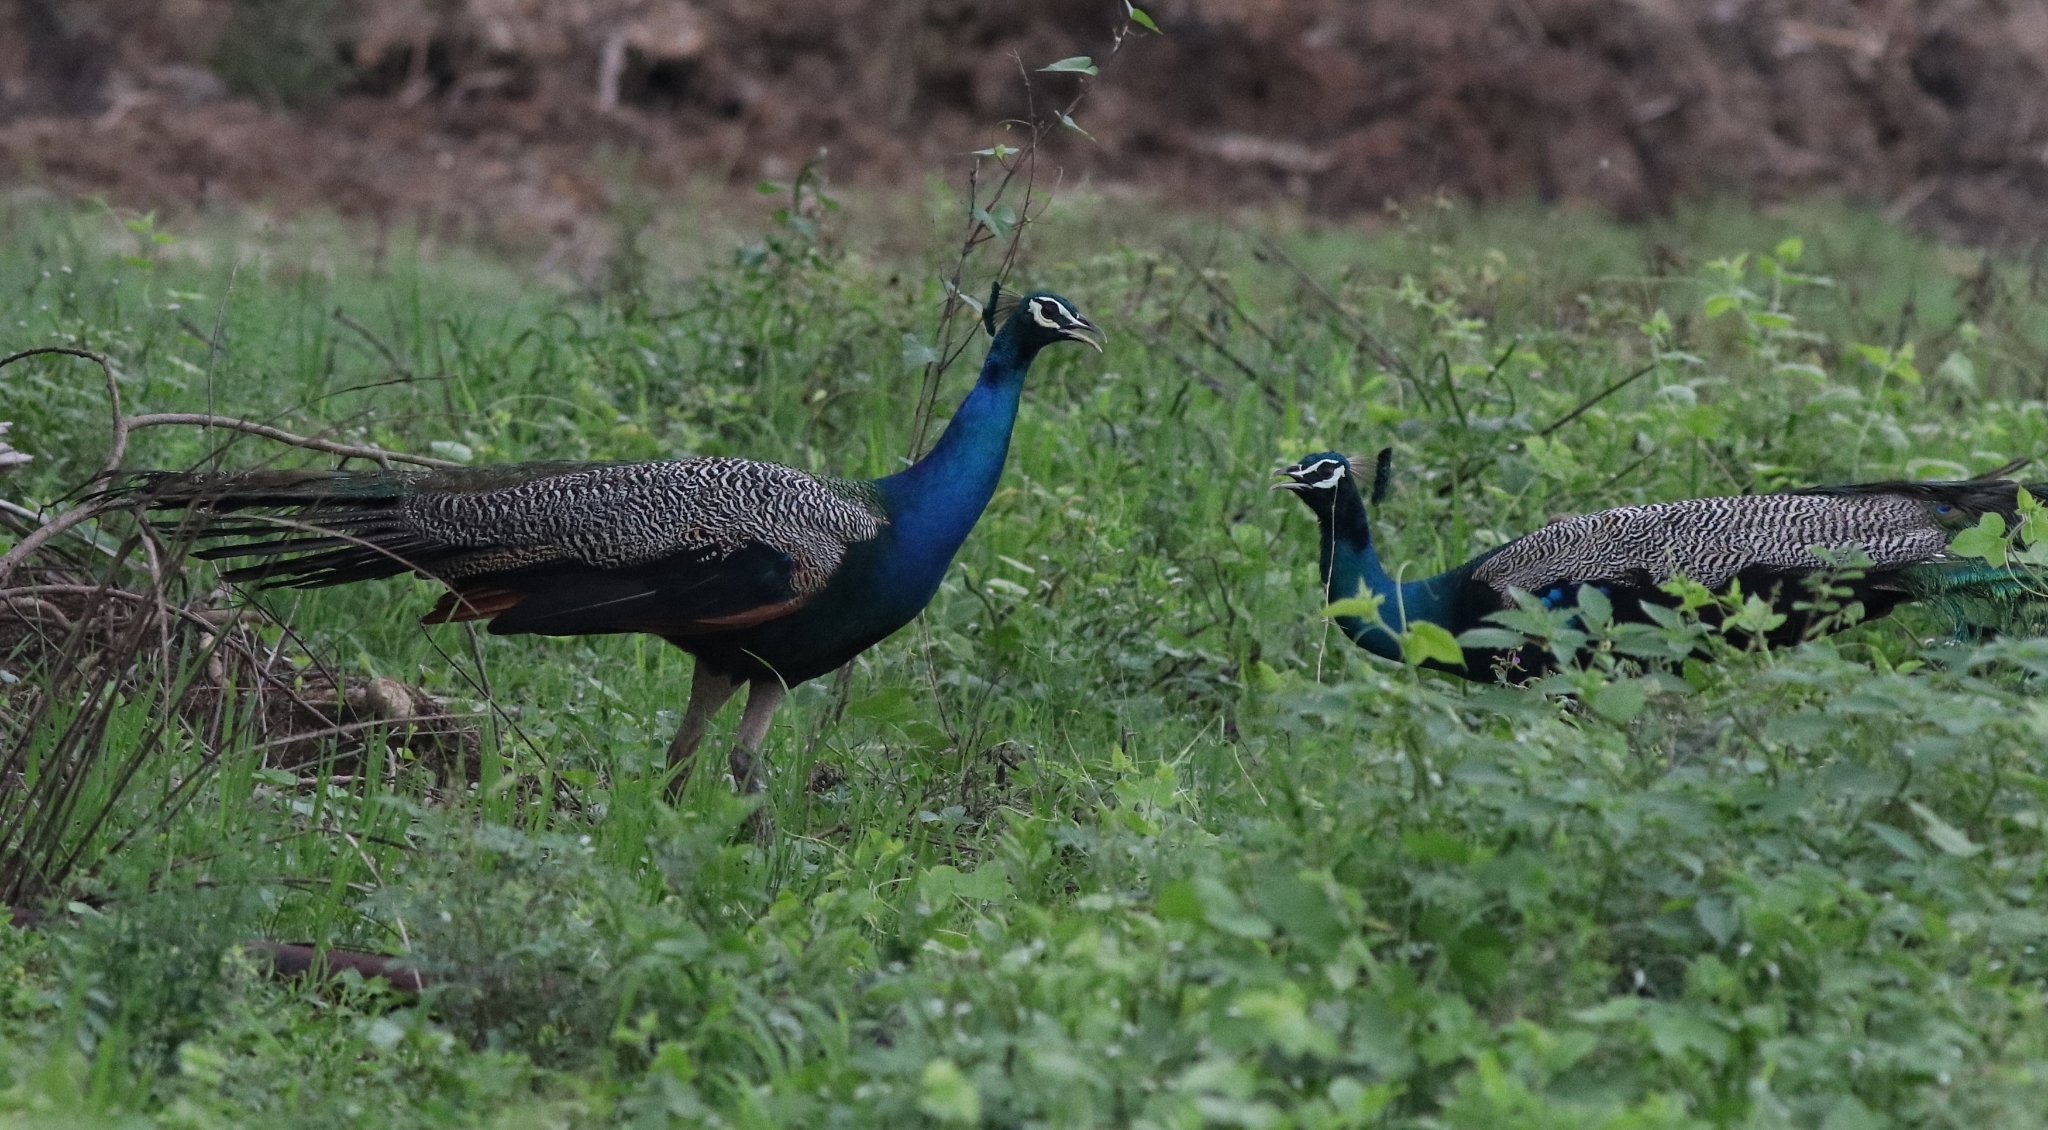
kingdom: Animalia
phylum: Chordata
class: Aves
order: Galliformes
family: Phasianidae
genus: Pavo
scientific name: Pavo cristatus
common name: Indian peafowl
